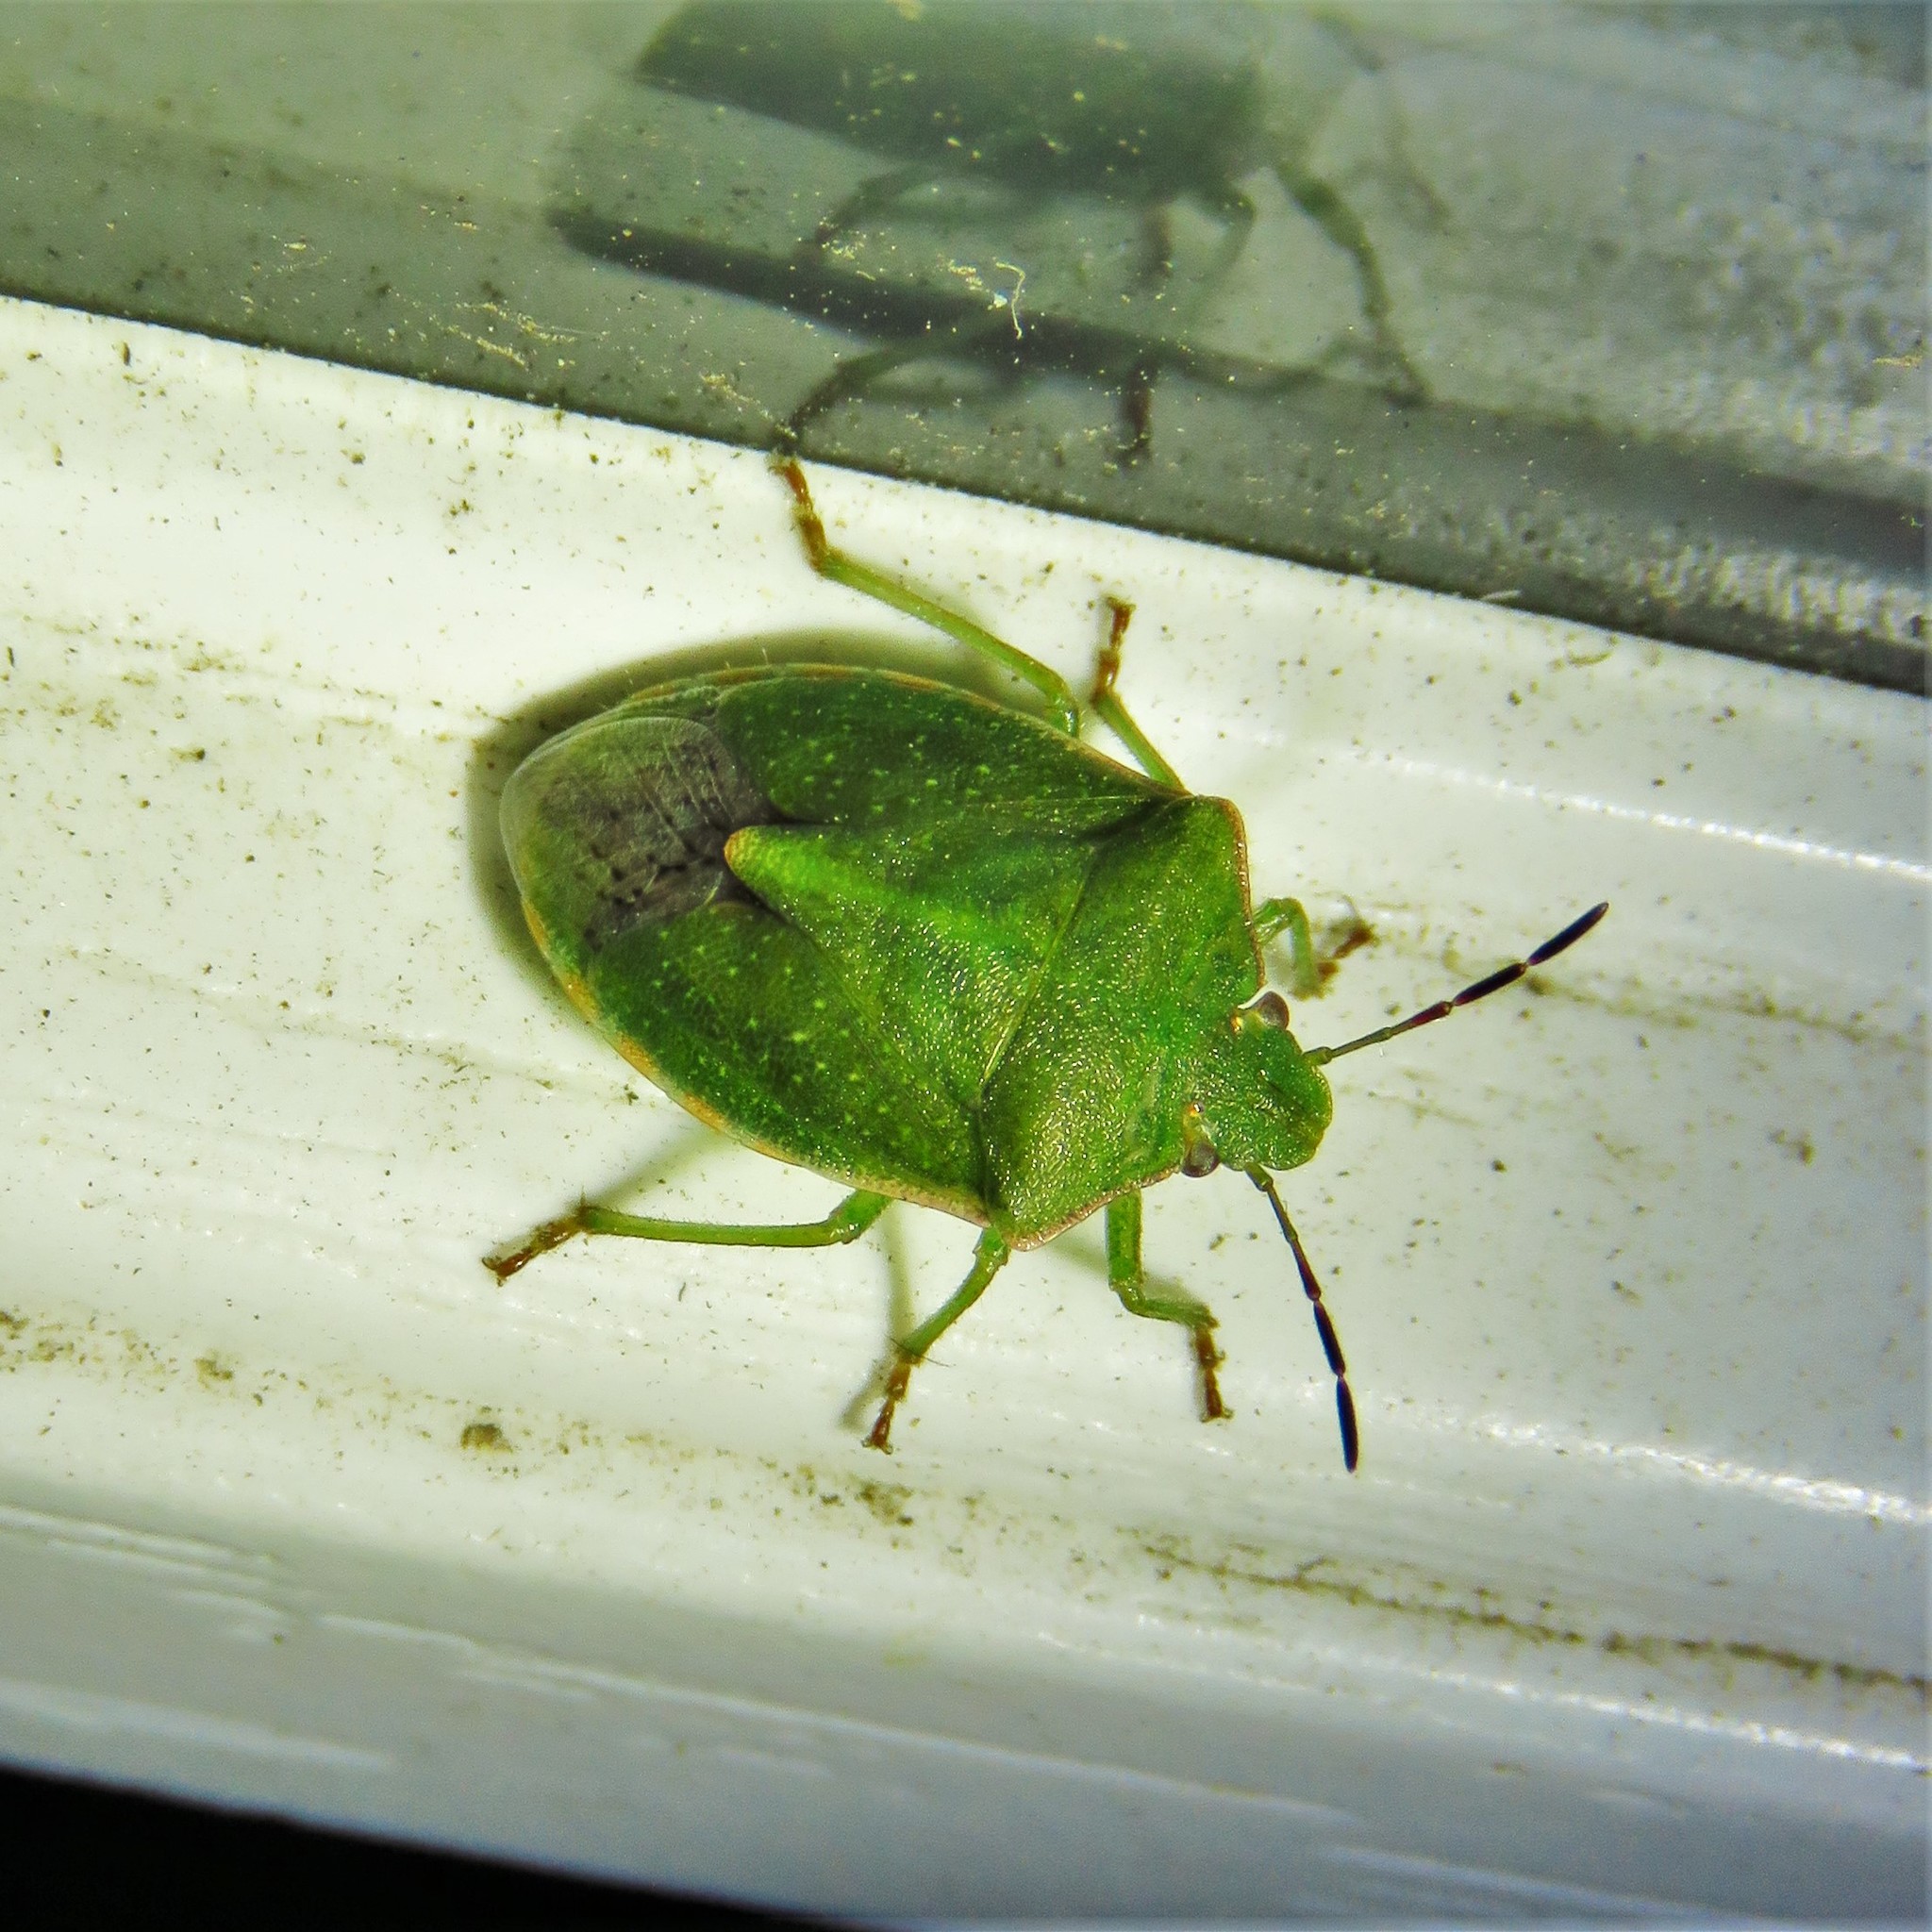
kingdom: Animalia
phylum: Arthropoda
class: Insecta
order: Hemiptera
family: Pentatomidae
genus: Thyanta
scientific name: Thyanta custator
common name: Stink bug
